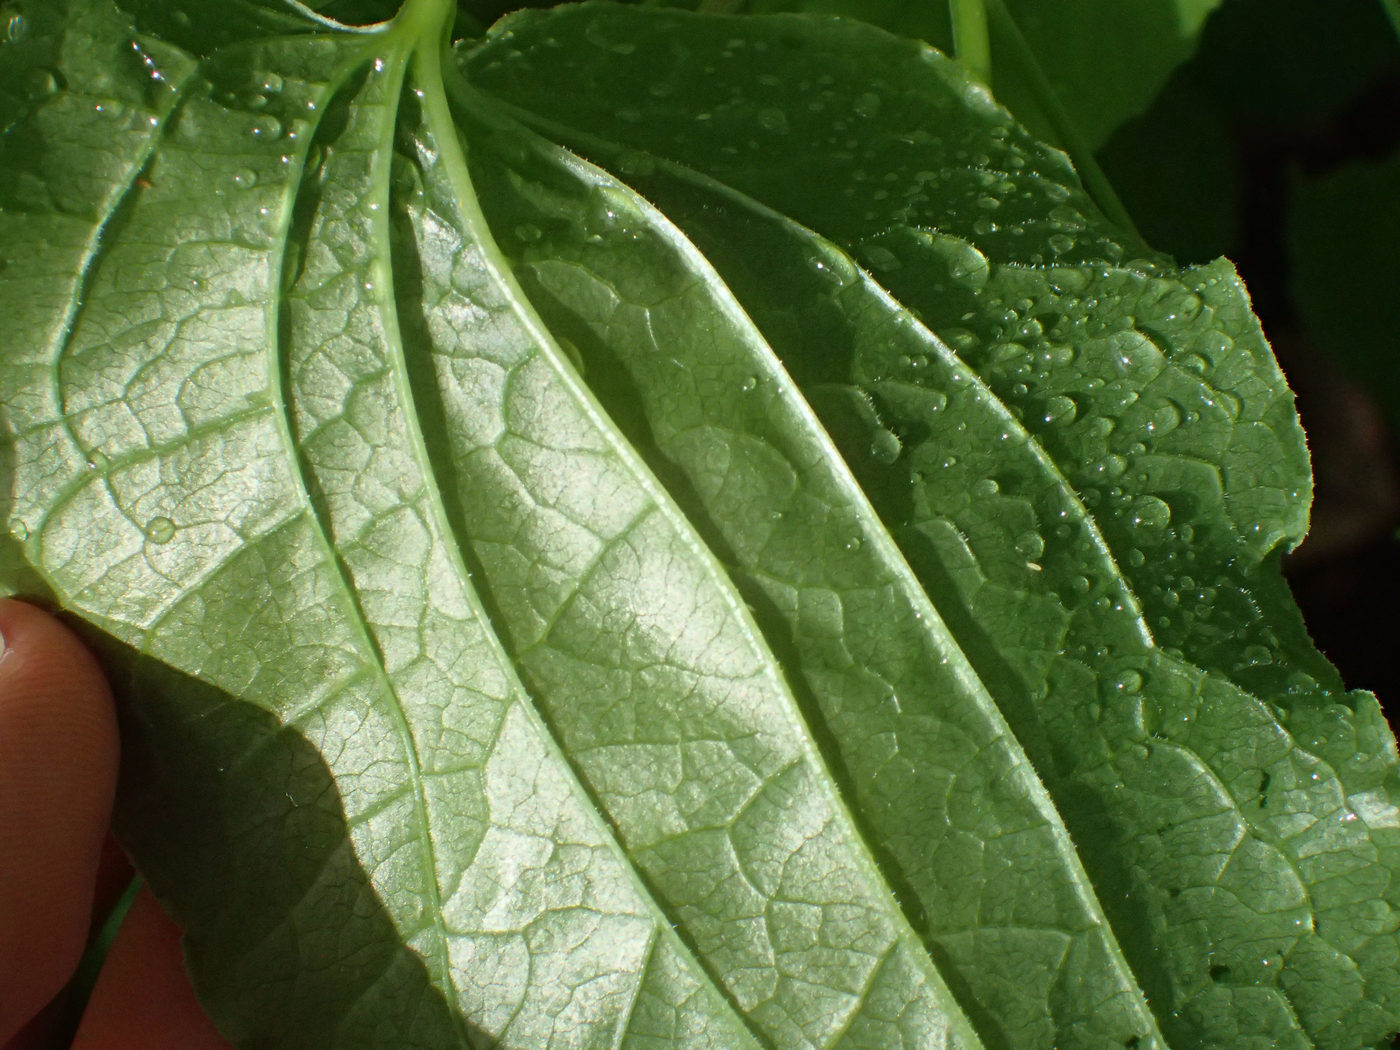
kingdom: Plantae
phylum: Tracheophyta
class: Liliopsida
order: Liliales
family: Smilacaceae
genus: Smilax
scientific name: Smilax pulverulenta
